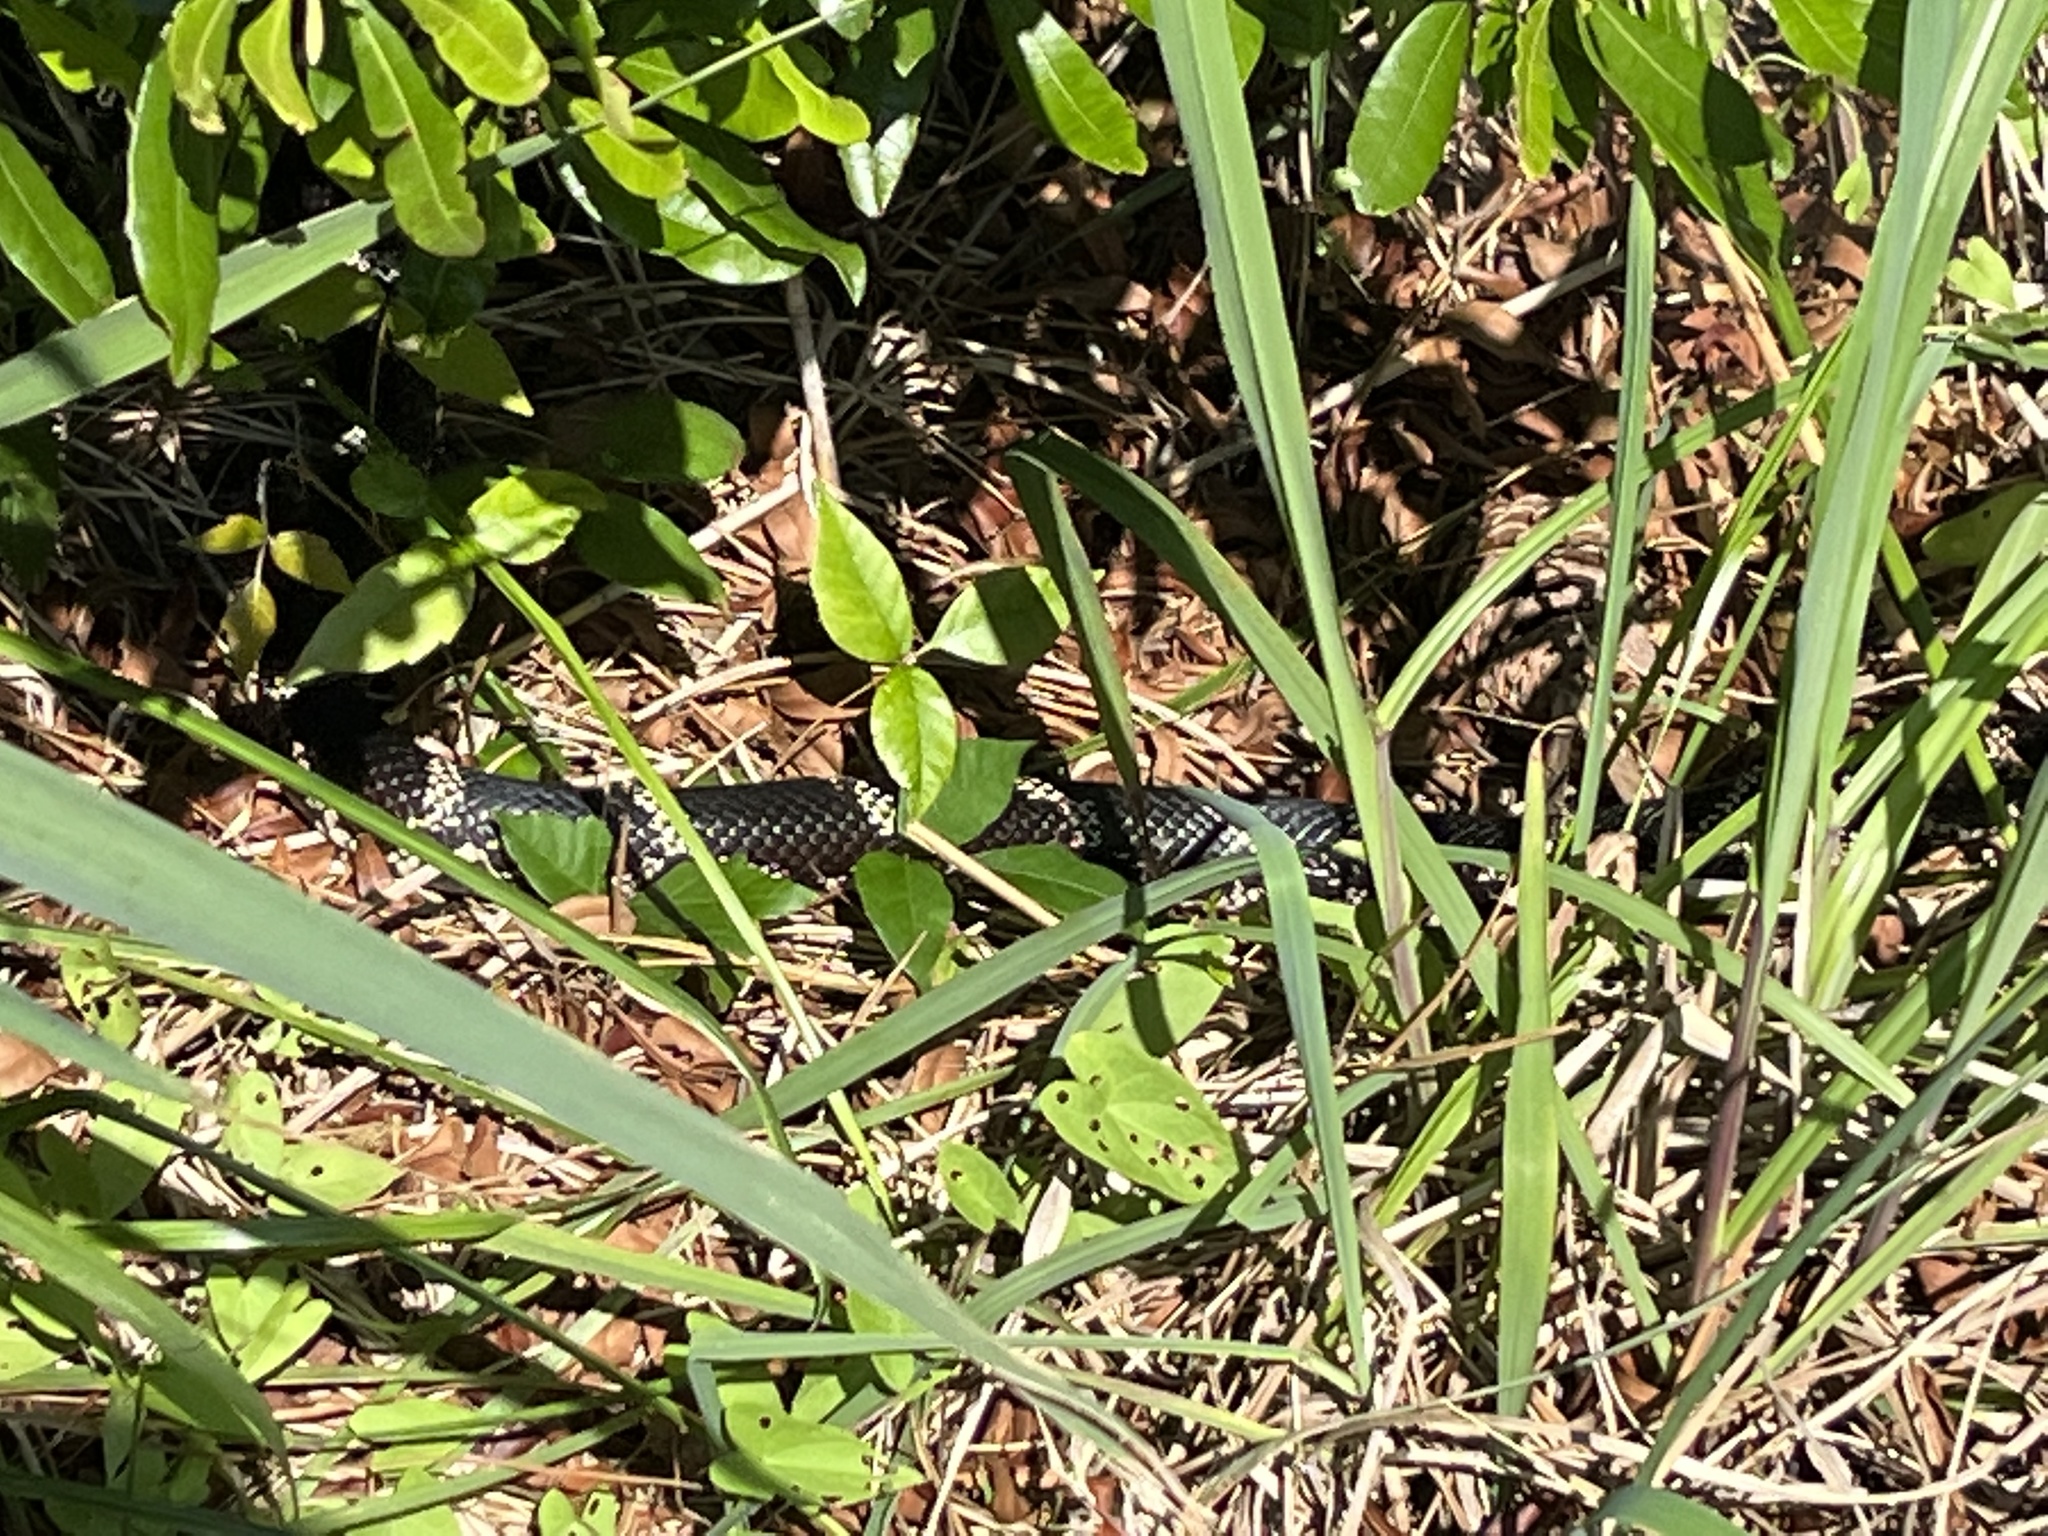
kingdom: Animalia
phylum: Chordata
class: Squamata
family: Colubridae
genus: Lampropeltis
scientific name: Lampropeltis getula
